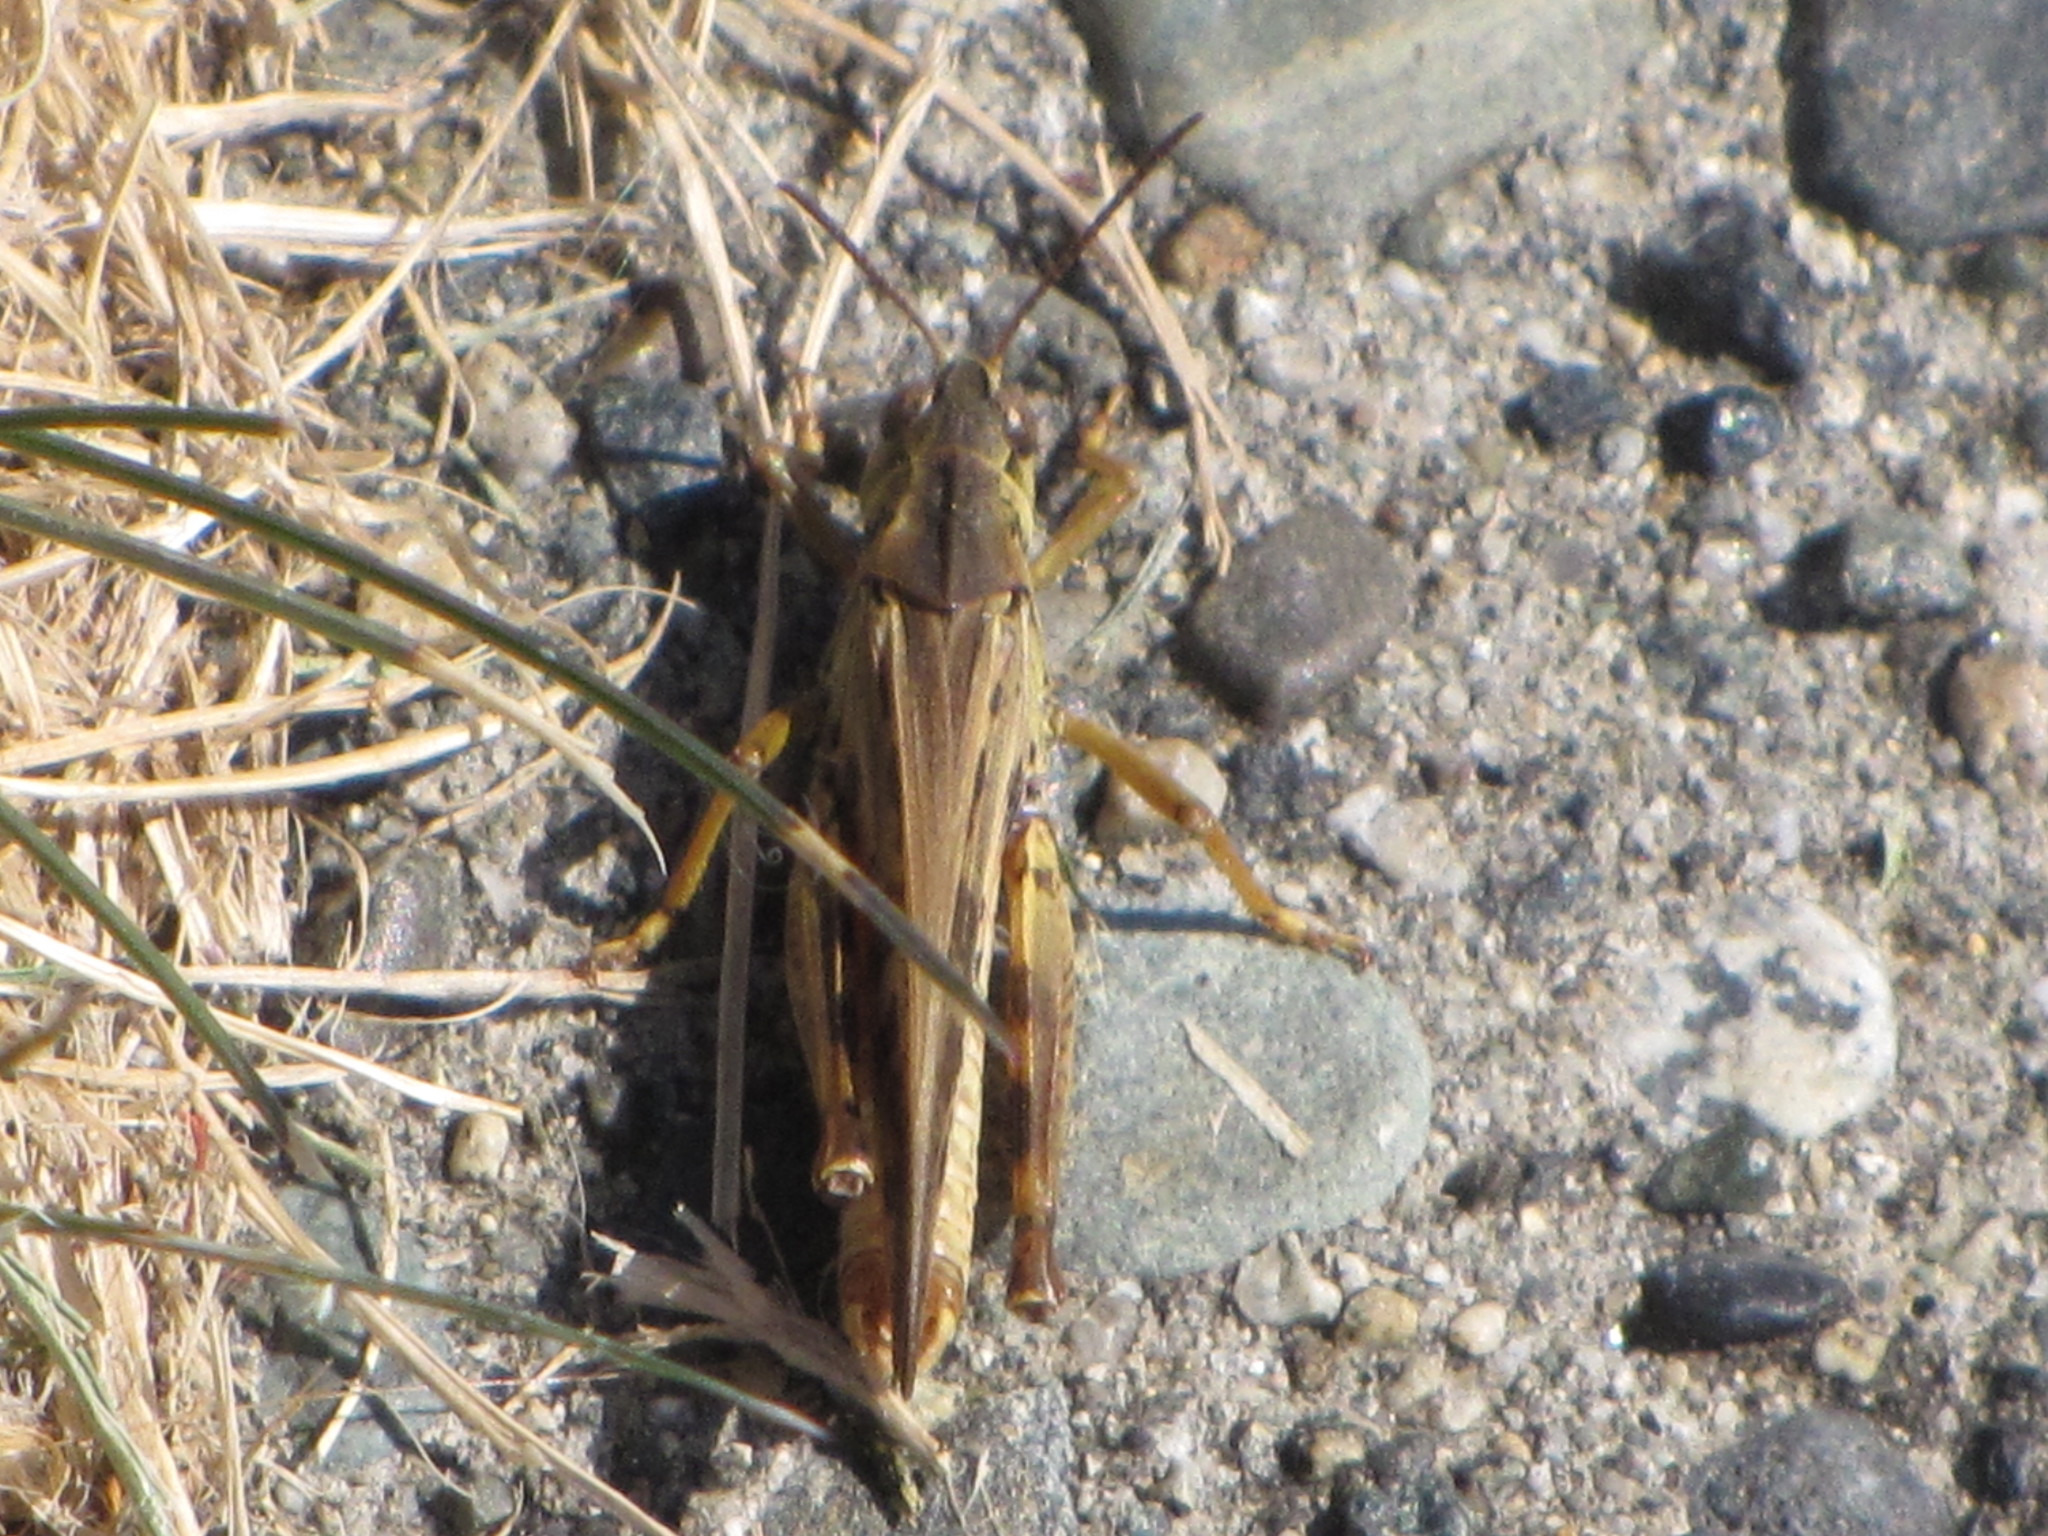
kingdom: Animalia
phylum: Arthropoda
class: Insecta
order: Orthoptera
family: Acrididae
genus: Camnula
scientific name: Camnula pellucida
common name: Clear-winged grasshopper
